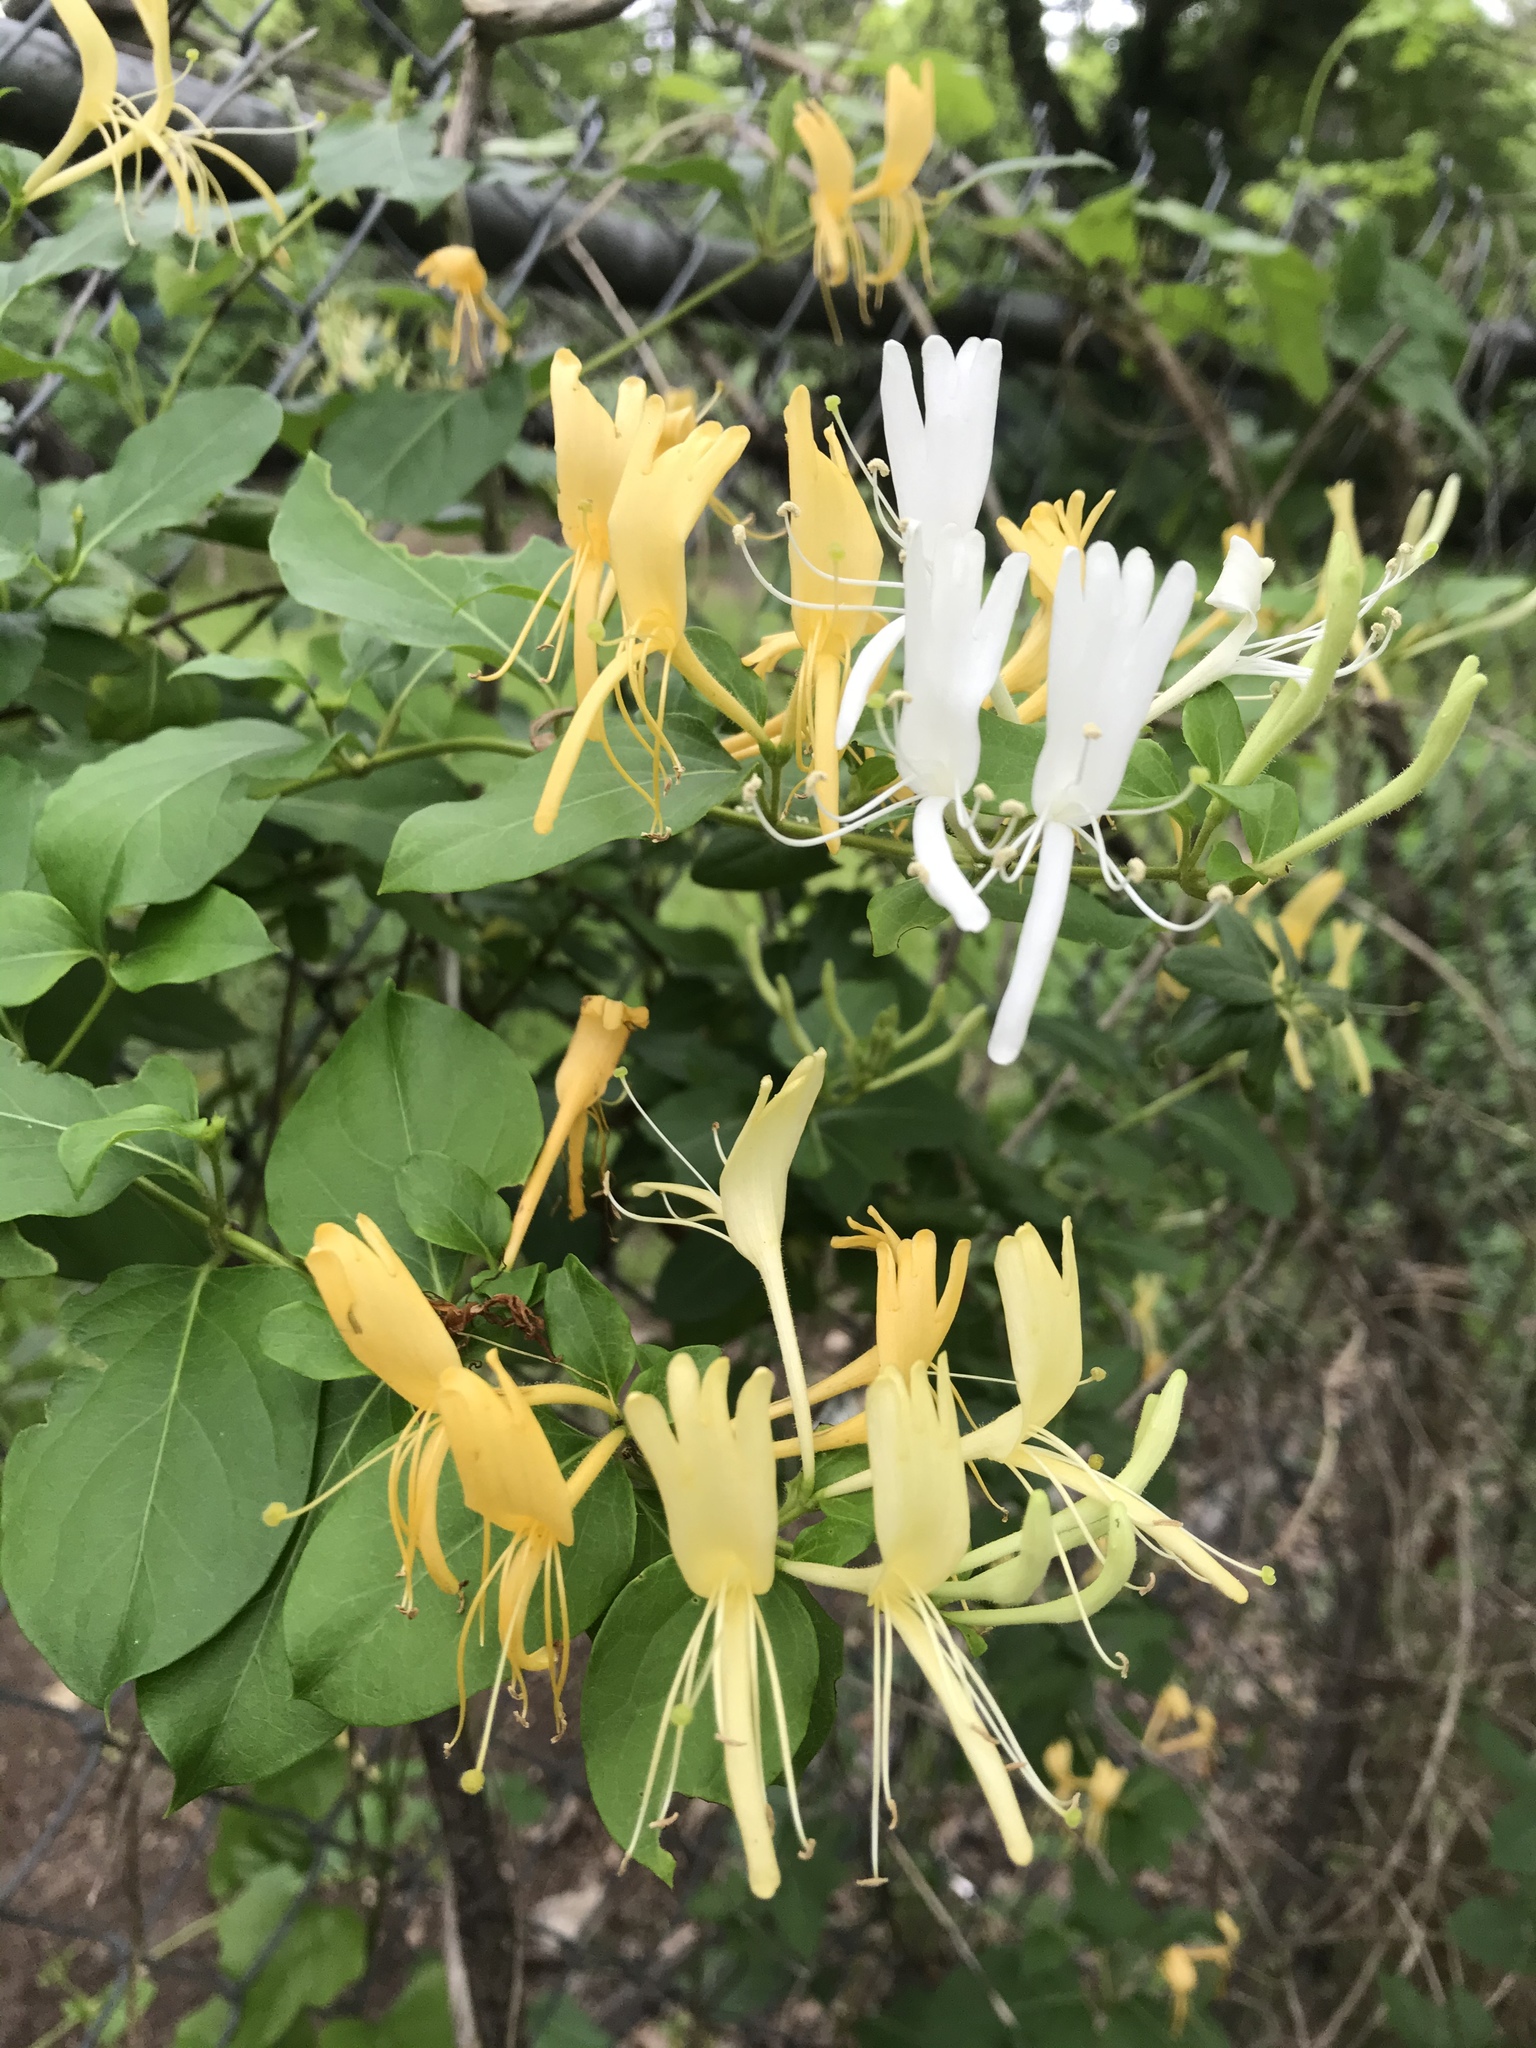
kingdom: Plantae
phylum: Tracheophyta
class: Magnoliopsida
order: Dipsacales
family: Caprifoliaceae
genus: Lonicera
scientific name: Lonicera japonica
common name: Japanese honeysuckle
